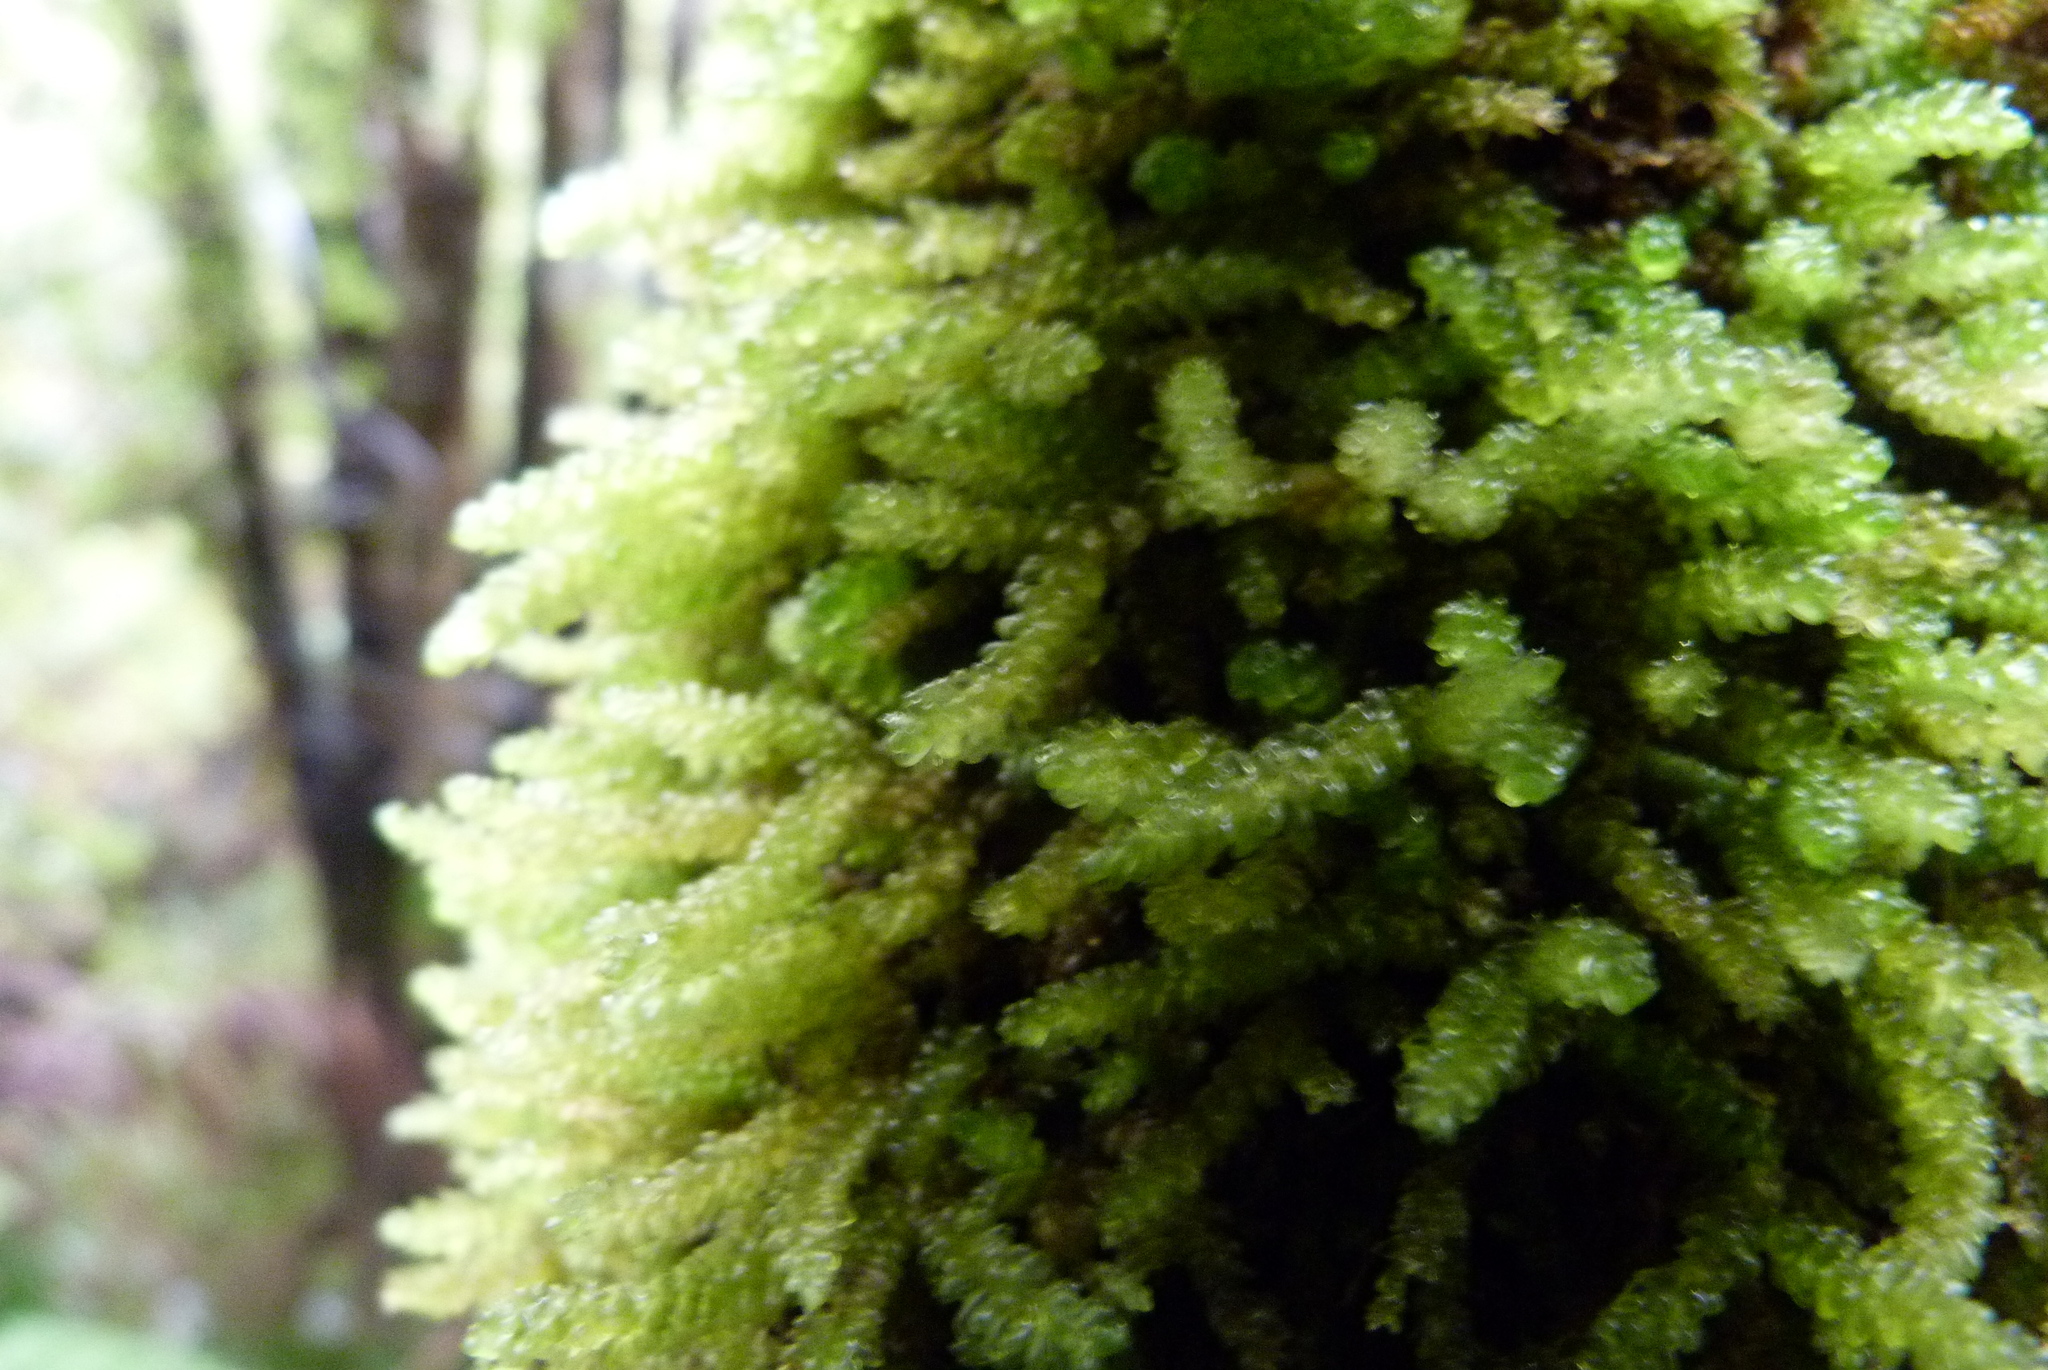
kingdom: Plantae
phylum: Bryophyta
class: Bryopsida
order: Hypnales
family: Lembophyllaceae
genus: Weymouthia
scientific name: Weymouthia cochlearifolia
